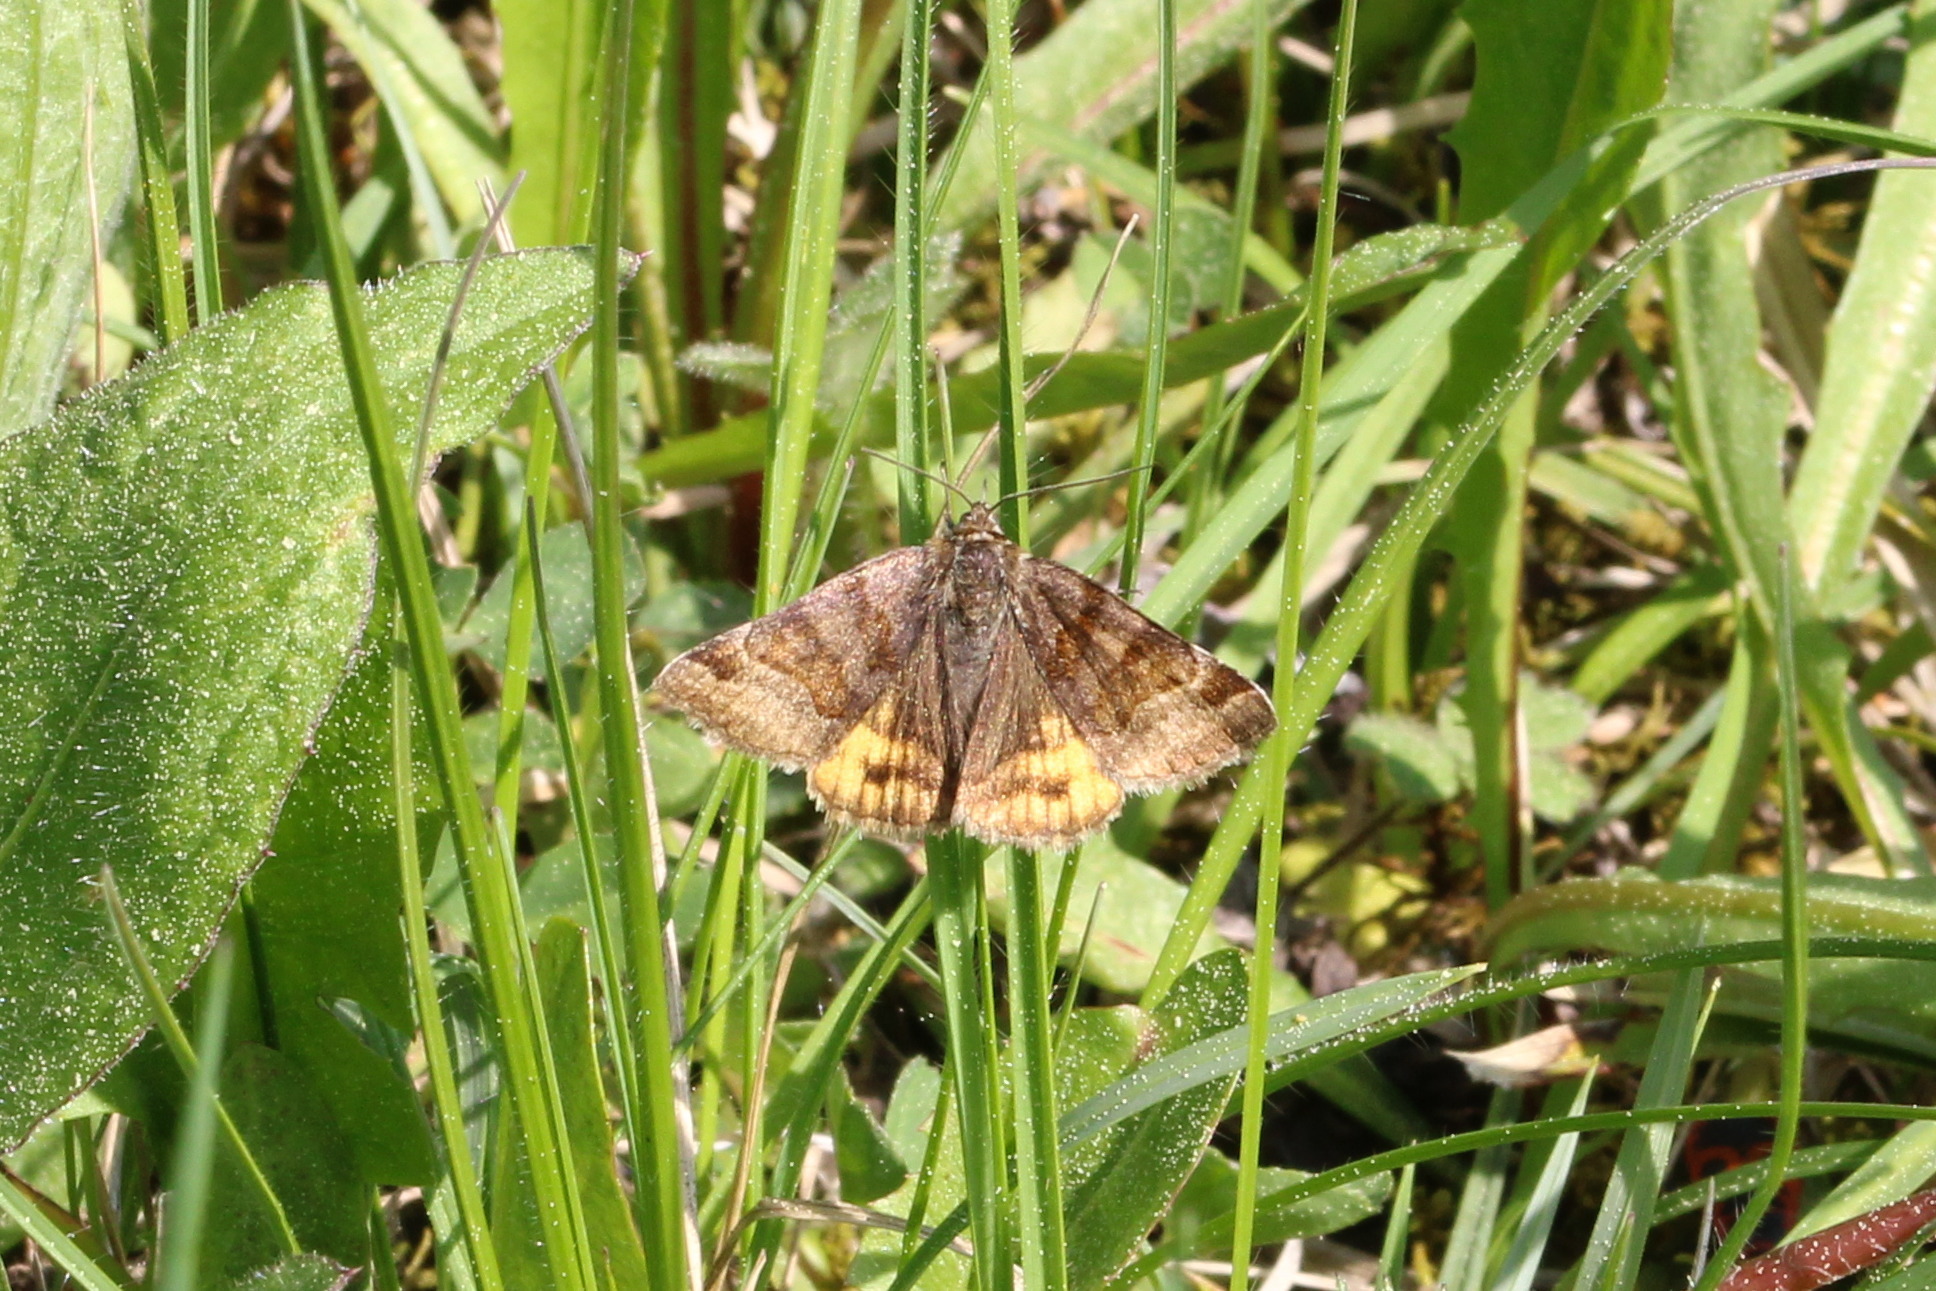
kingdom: Animalia
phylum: Arthropoda
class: Insecta
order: Lepidoptera
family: Erebidae
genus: Euclidia
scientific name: Euclidia glyphica
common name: Burnet companion
